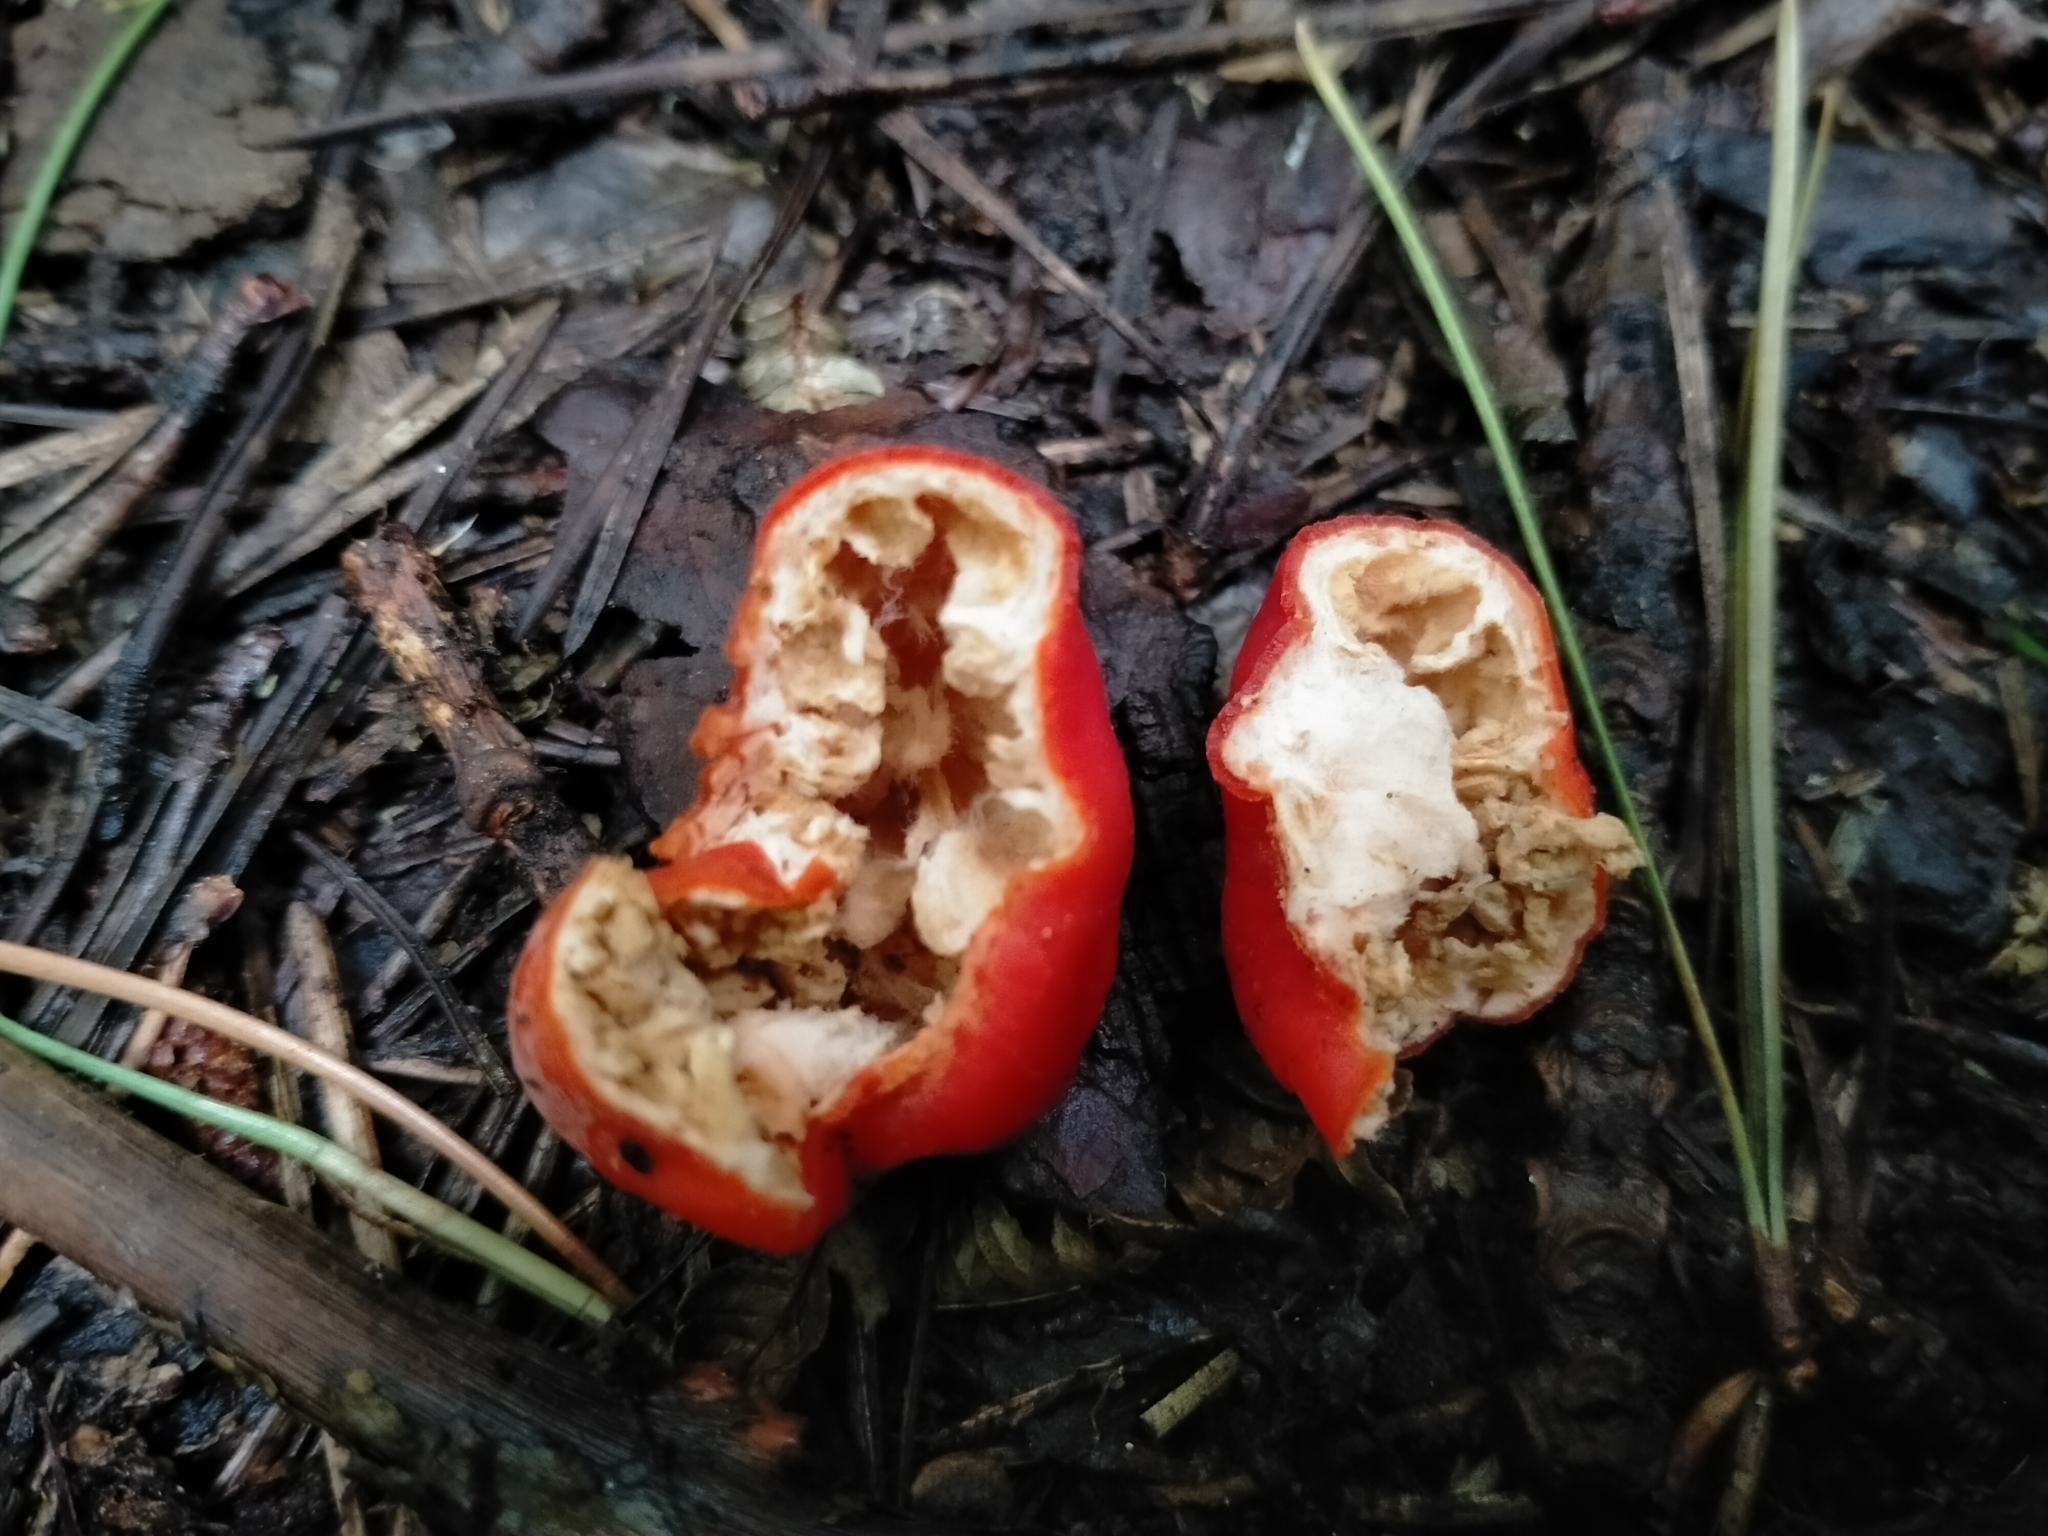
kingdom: Fungi
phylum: Ascomycota
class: Pezizomycetes
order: Pezizales
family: Pyronemataceae
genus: Paurocotylis
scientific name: Paurocotylis pila
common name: Scarlet berry truffle
